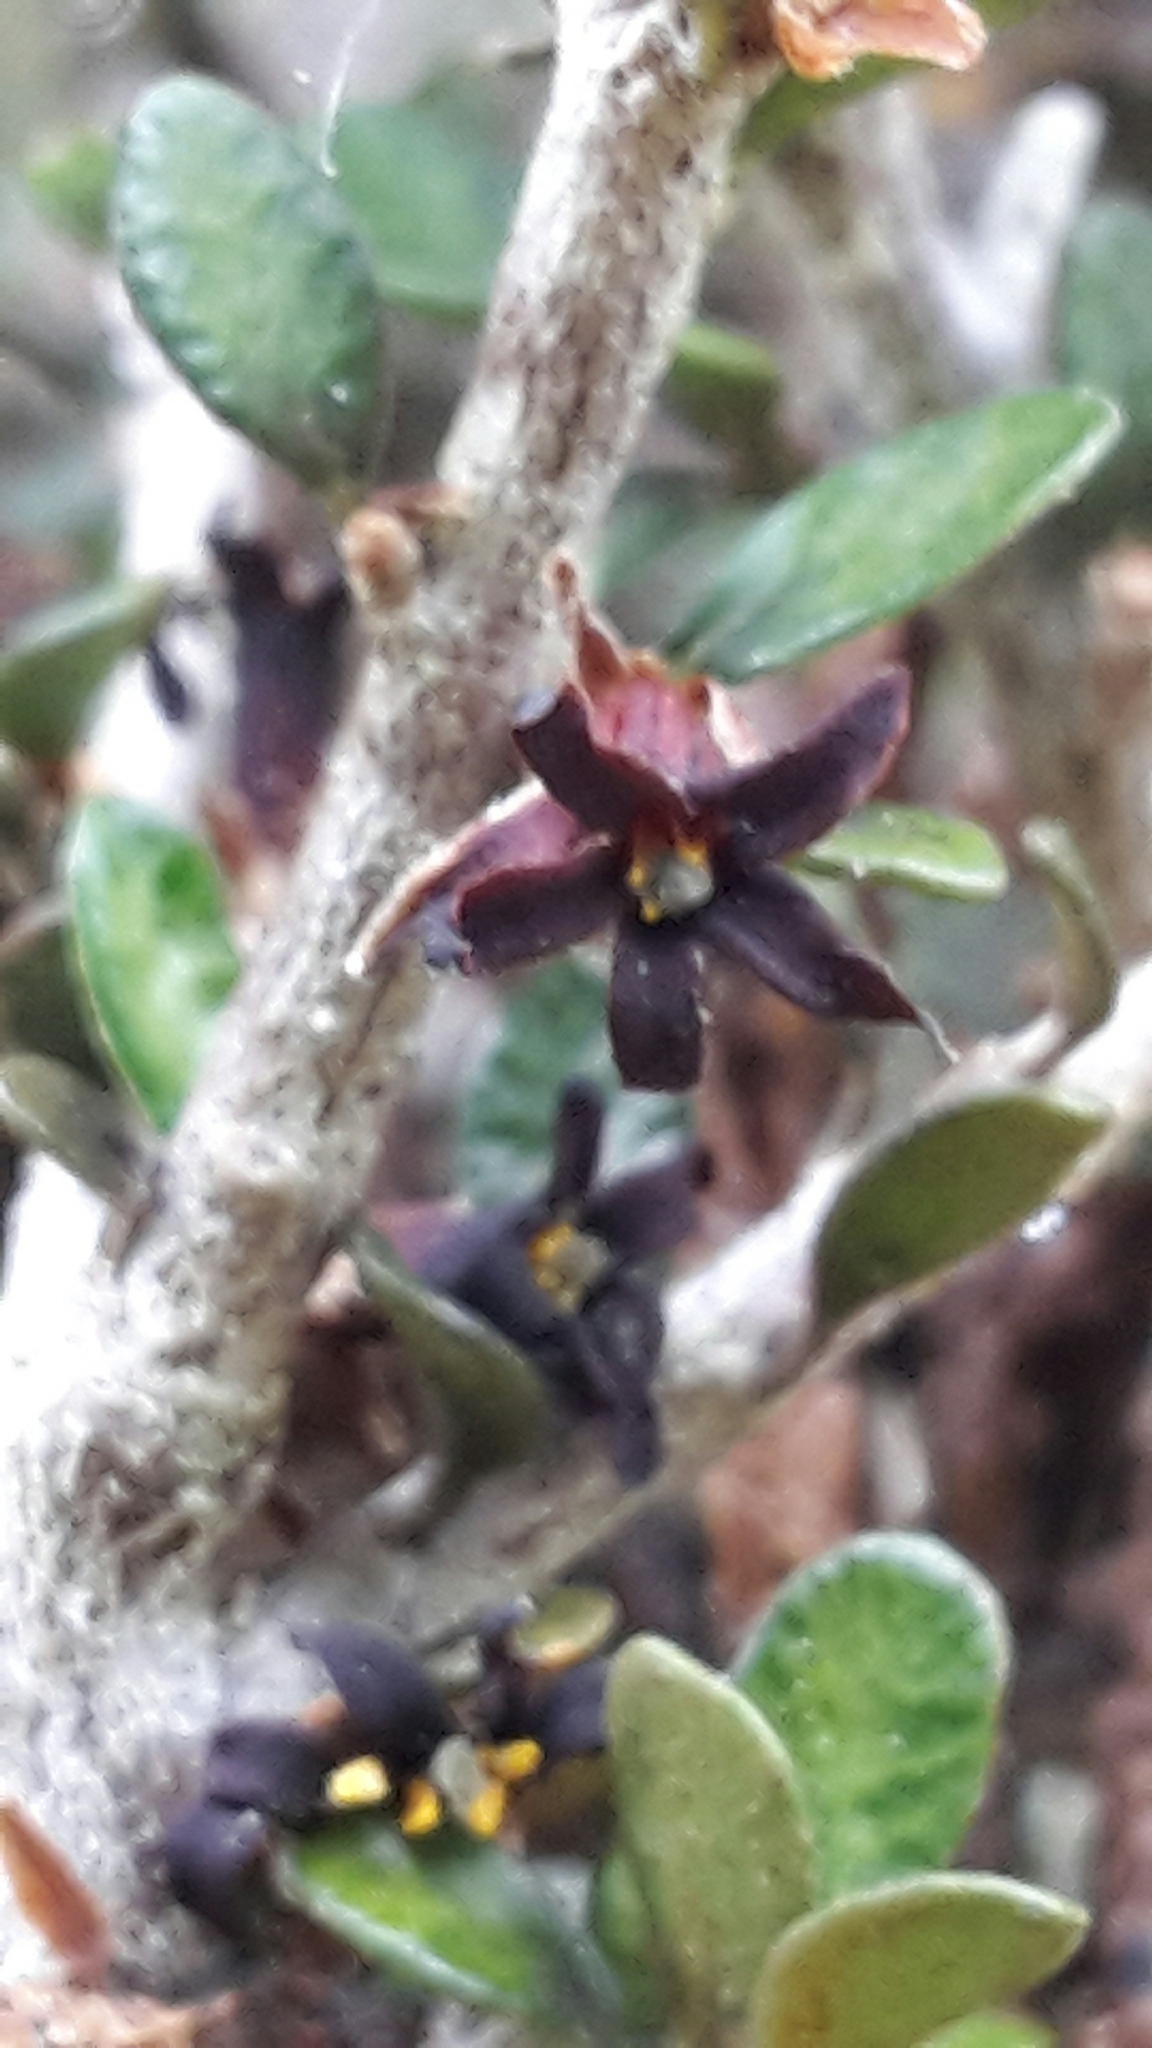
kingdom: Plantae
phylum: Tracheophyta
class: Magnoliopsida
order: Apiales
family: Pittosporaceae
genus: Pittosporum
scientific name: Pittosporum rigidum
